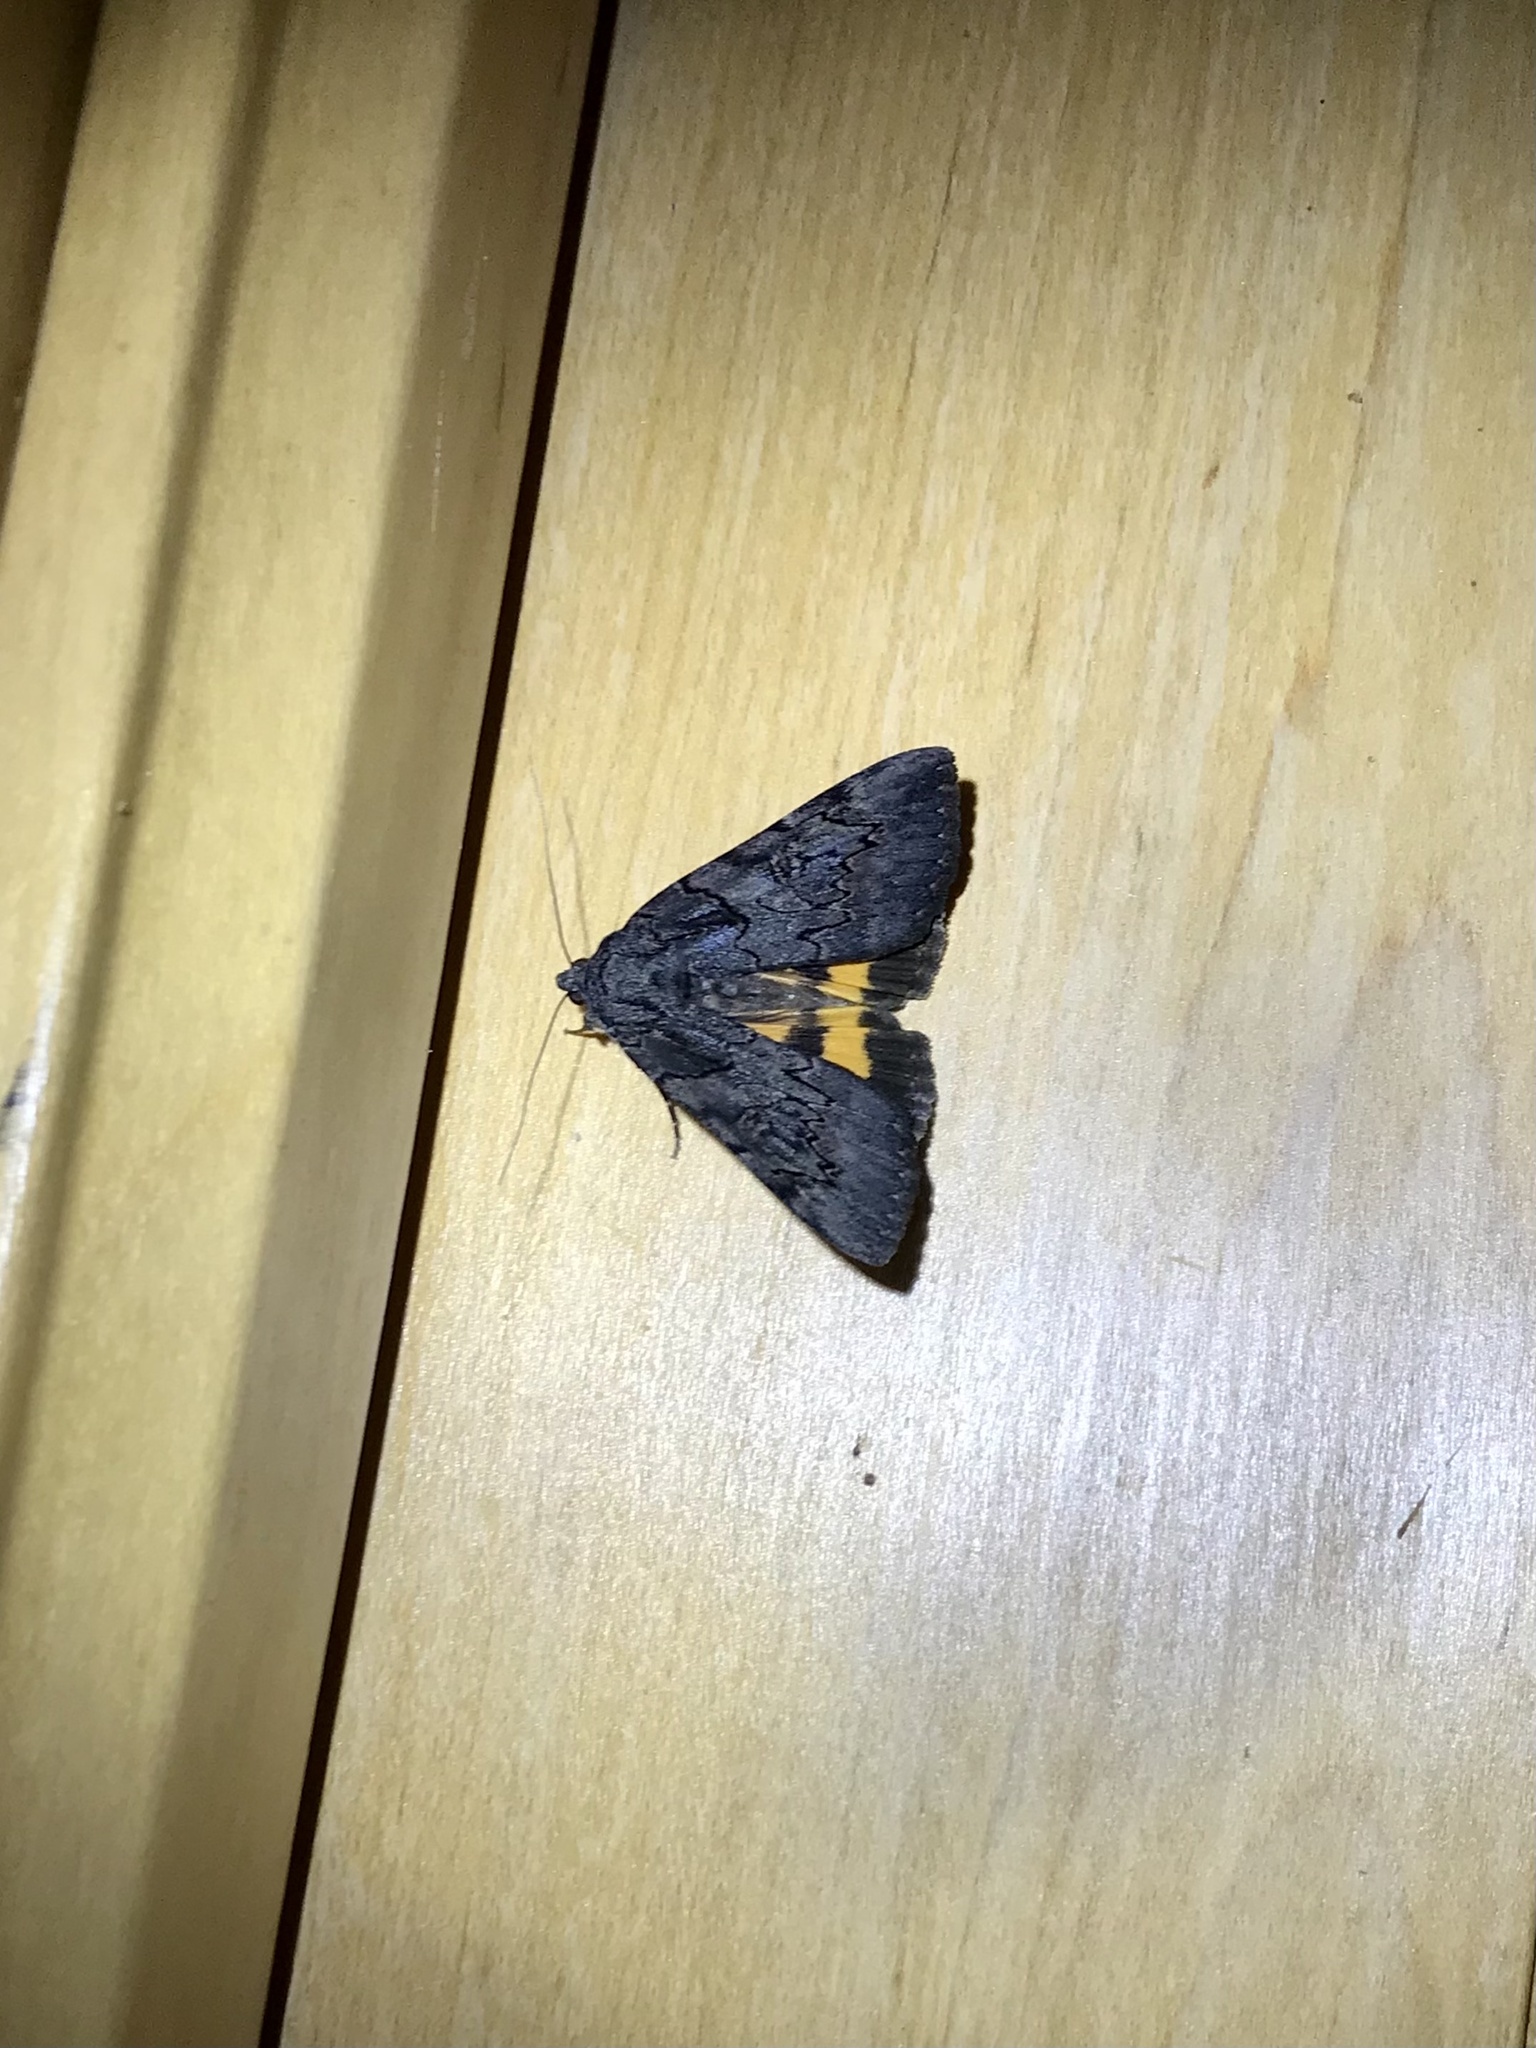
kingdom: Animalia
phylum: Arthropoda
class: Insecta
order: Lepidoptera
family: Erebidae
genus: Catocala
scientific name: Catocala antinympha
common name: Sweetfern underwing
